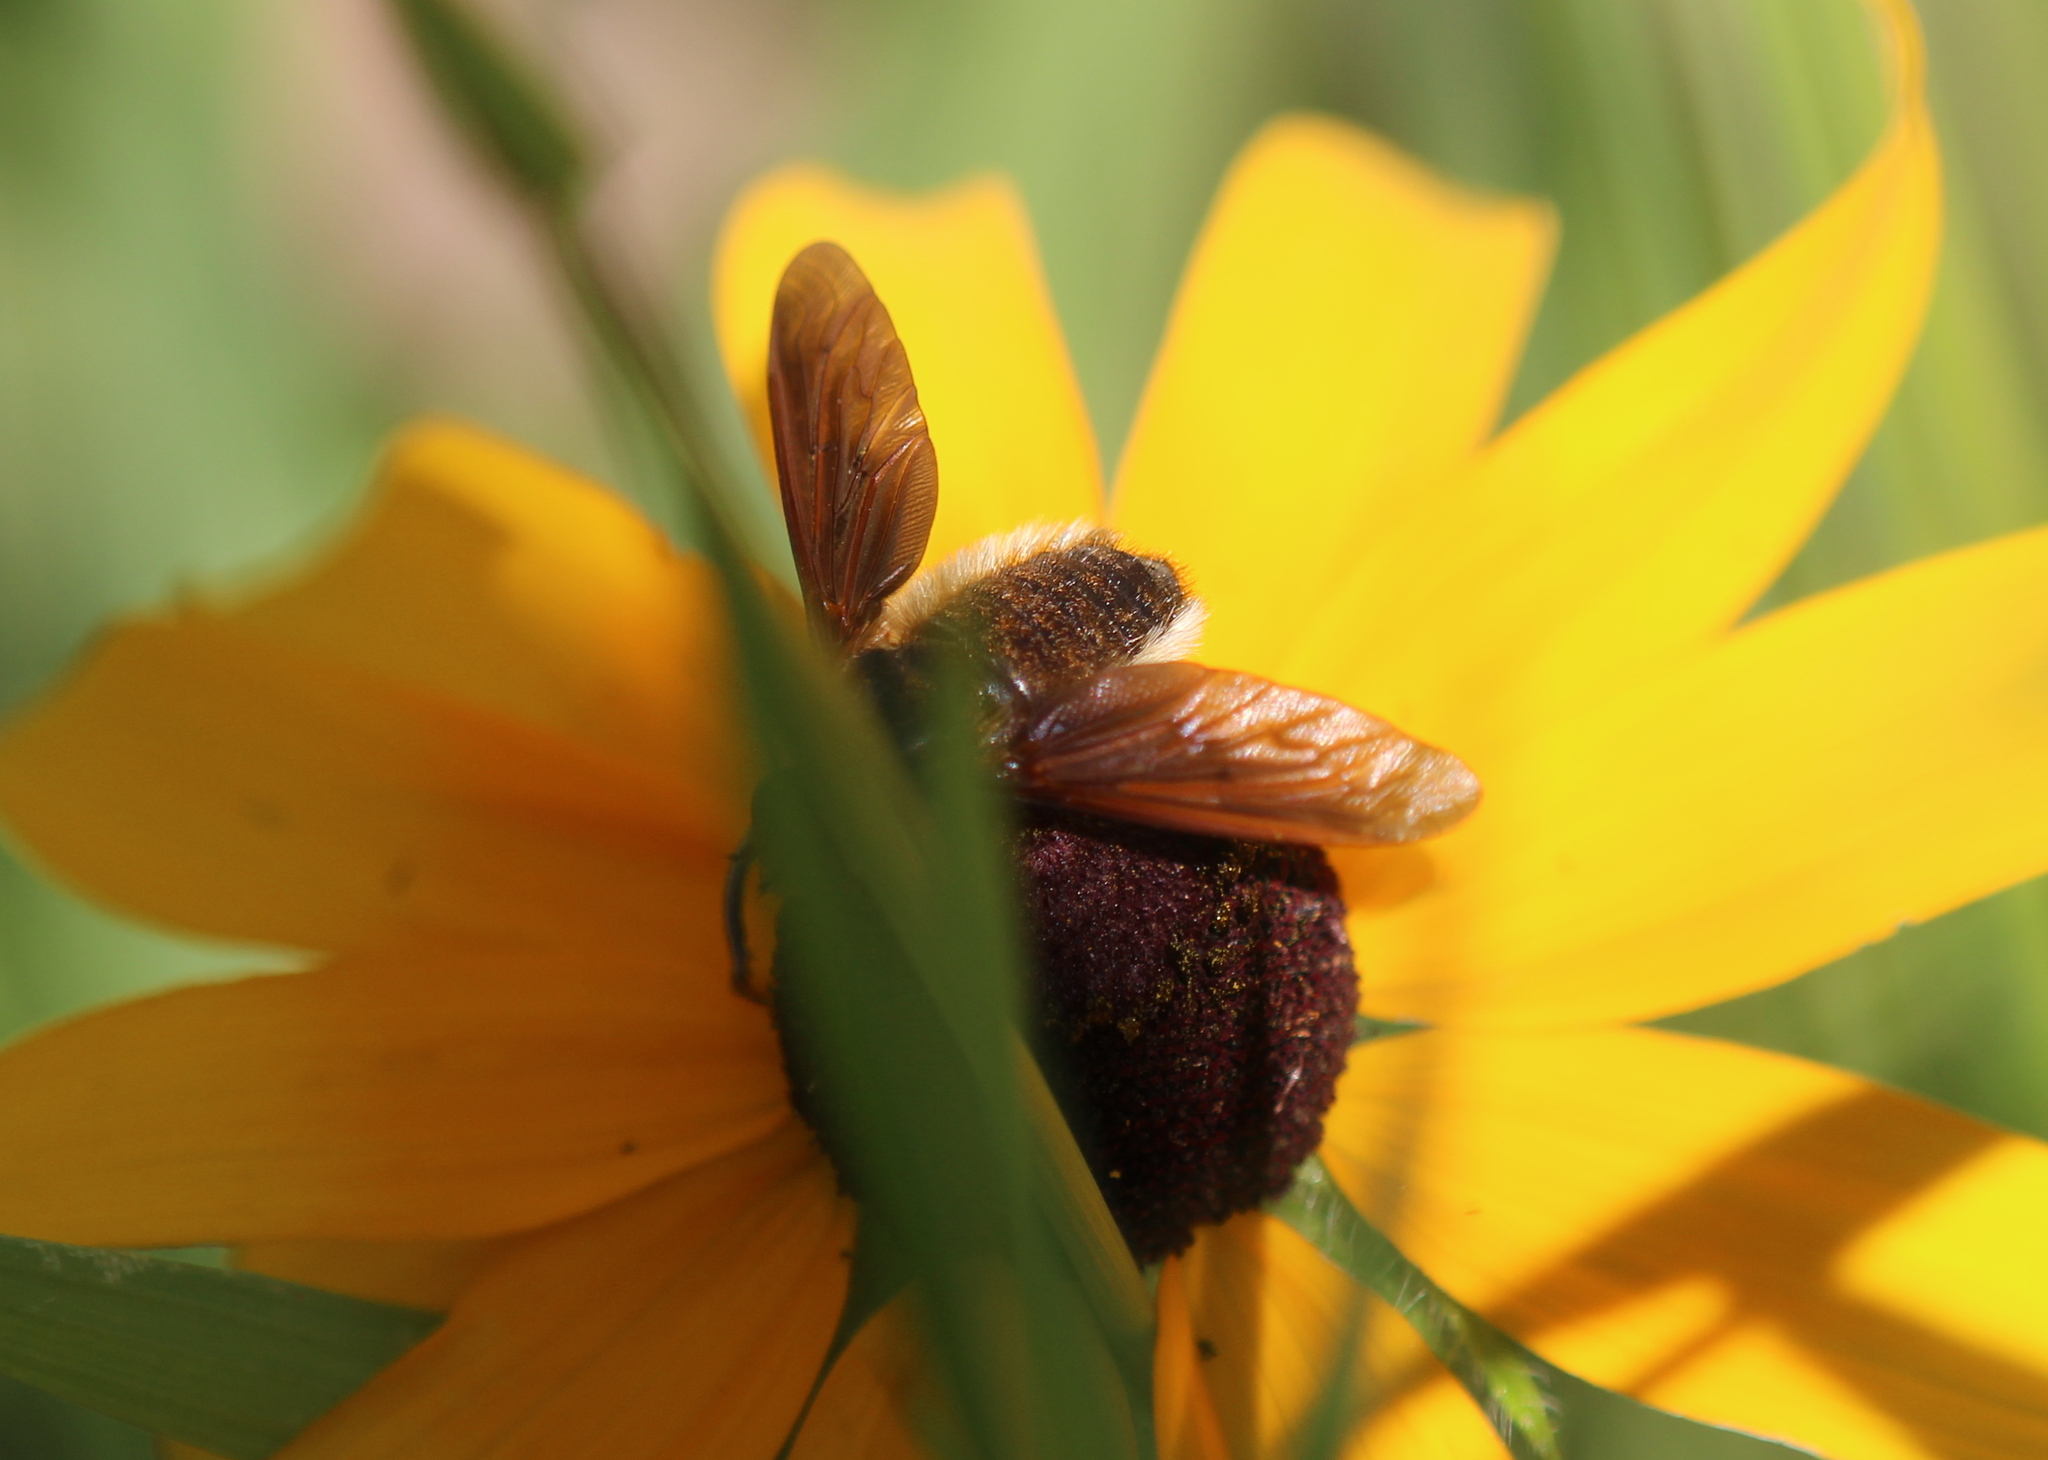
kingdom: Animalia
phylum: Arthropoda
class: Insecta
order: Diptera
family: Bombyliidae
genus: Poecilanthrax
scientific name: Poecilanthrax tegminipennis
